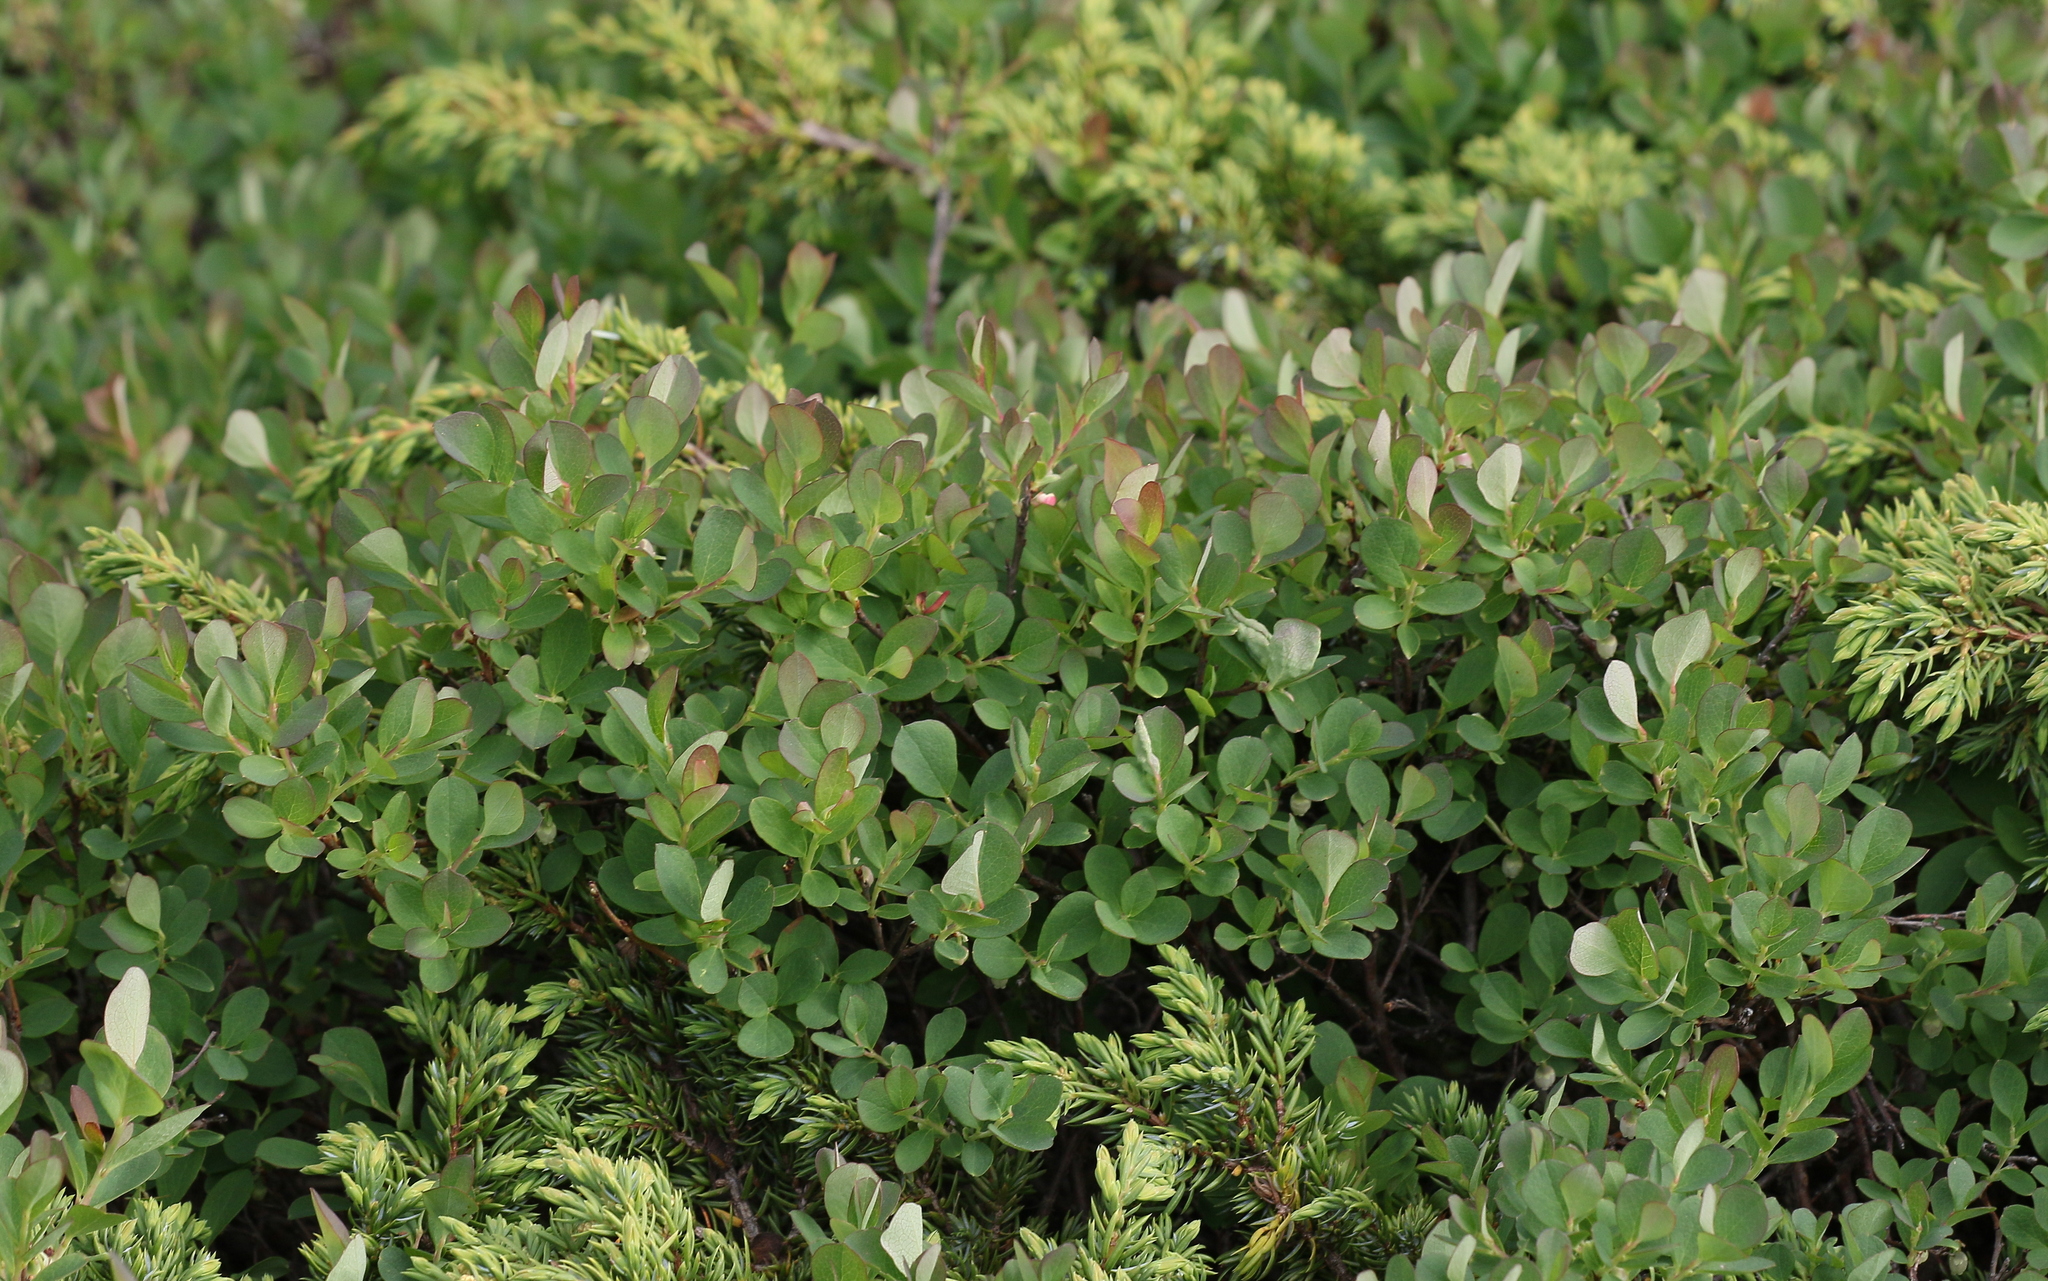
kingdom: Plantae
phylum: Tracheophyta
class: Magnoliopsida
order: Ericales
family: Ericaceae
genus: Vaccinium
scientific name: Vaccinium uliginosum
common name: Bog bilberry
